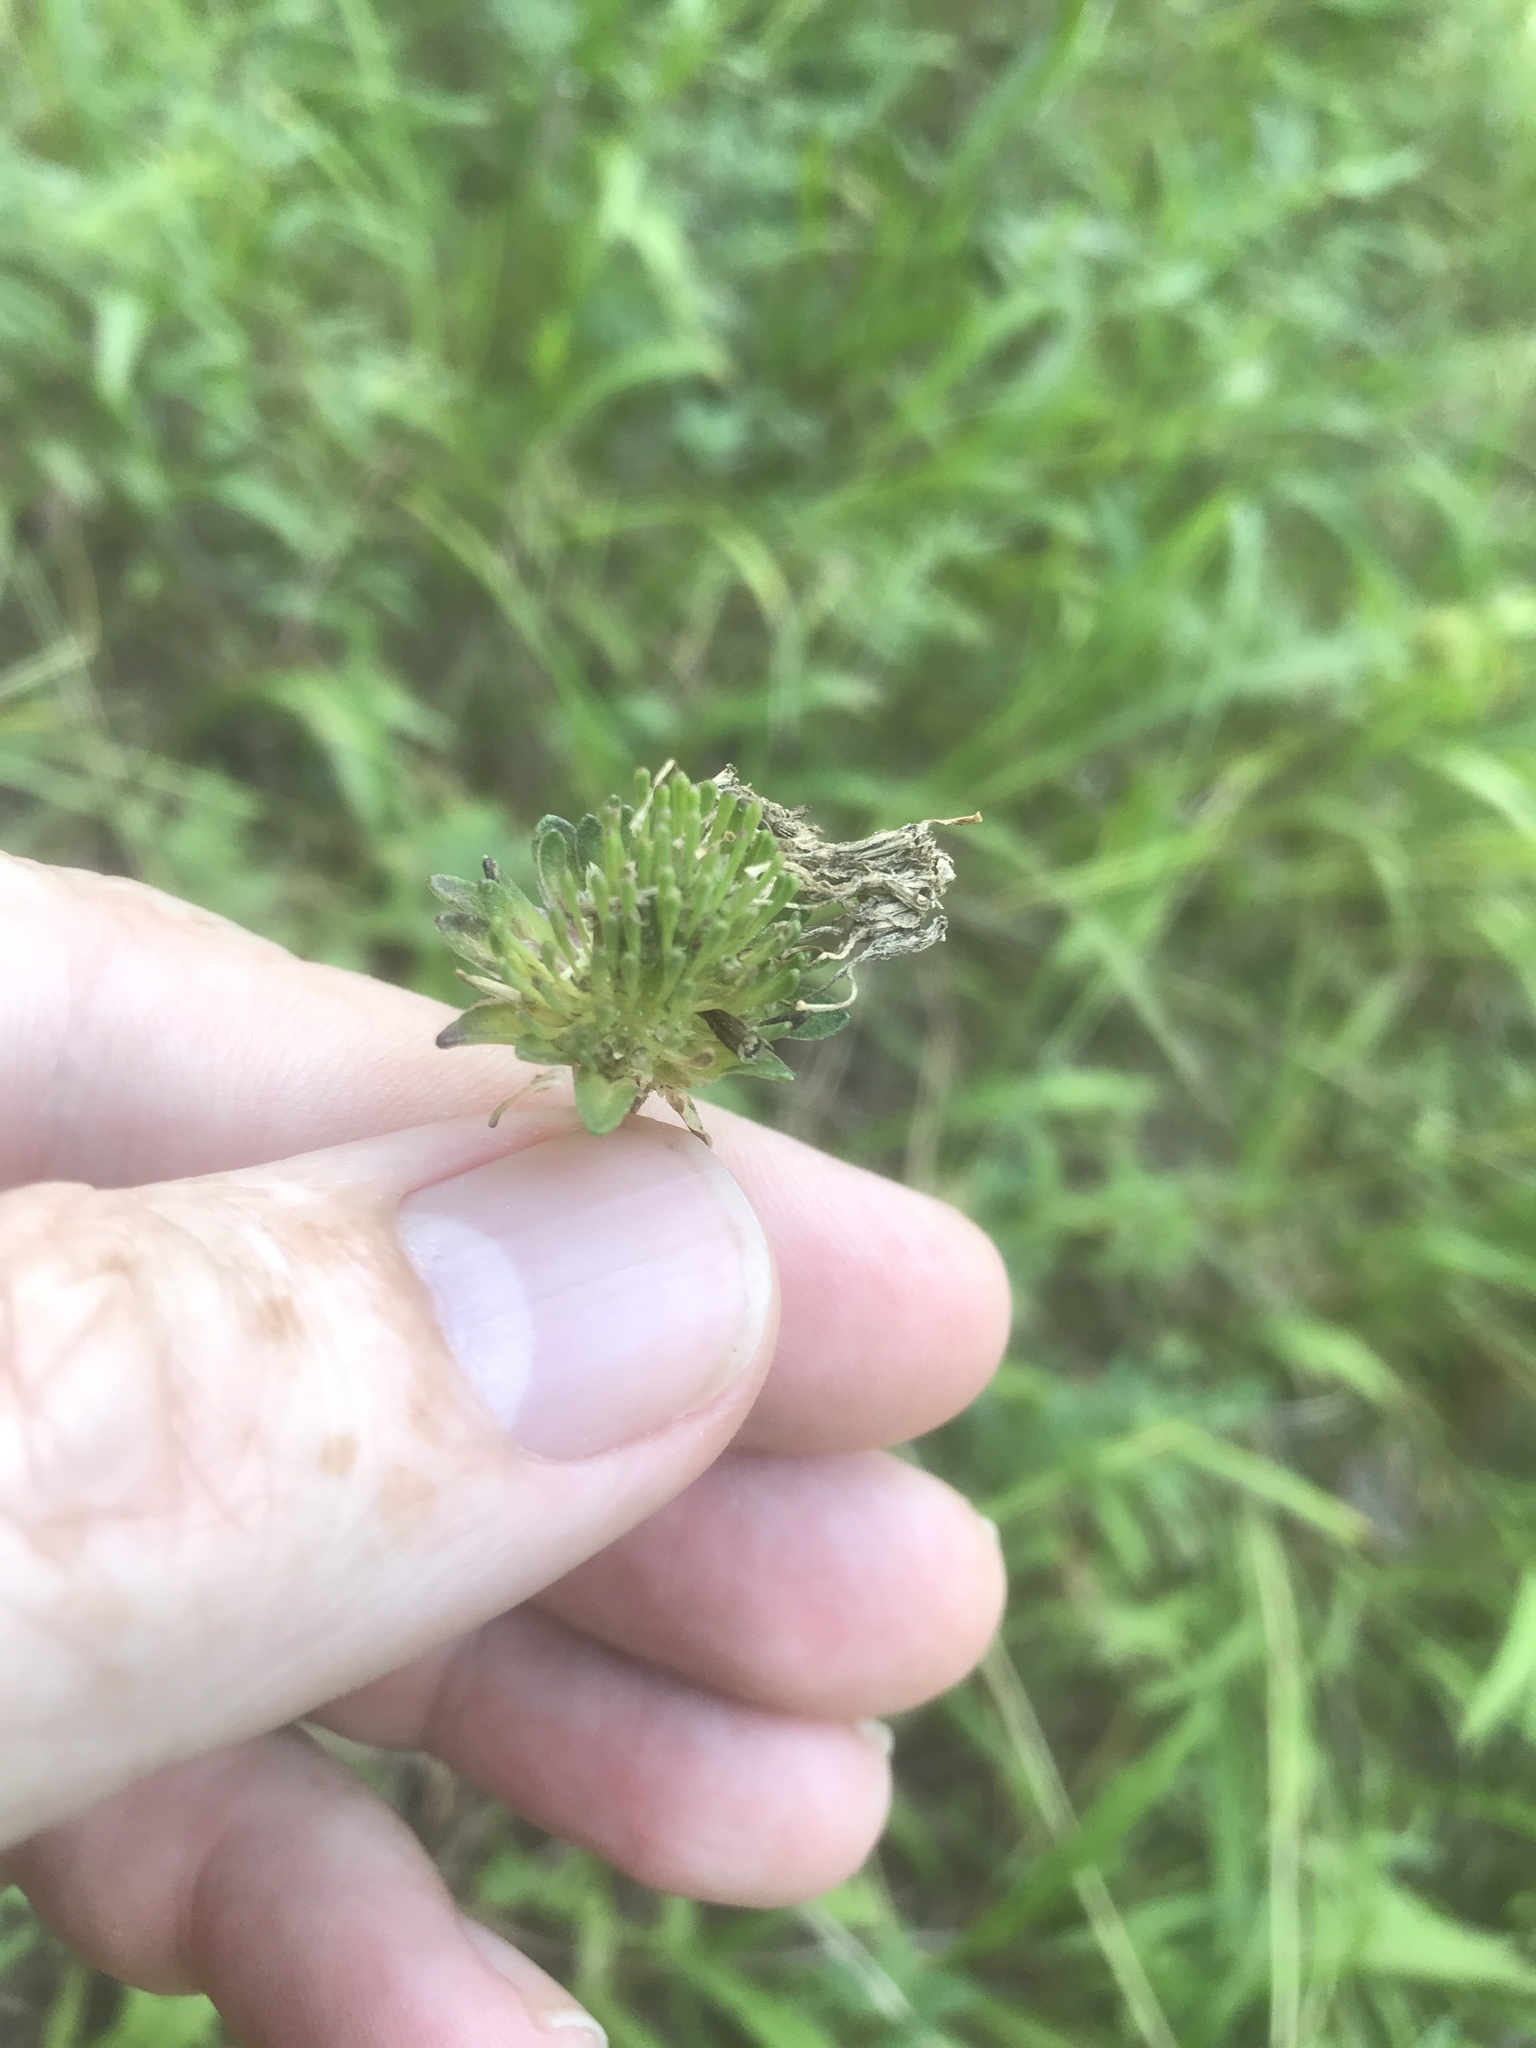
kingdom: Plantae
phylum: Tracheophyta
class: Magnoliopsida
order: Asterales
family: Asteraceae
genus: Marshallia
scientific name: Marshallia legrandii
